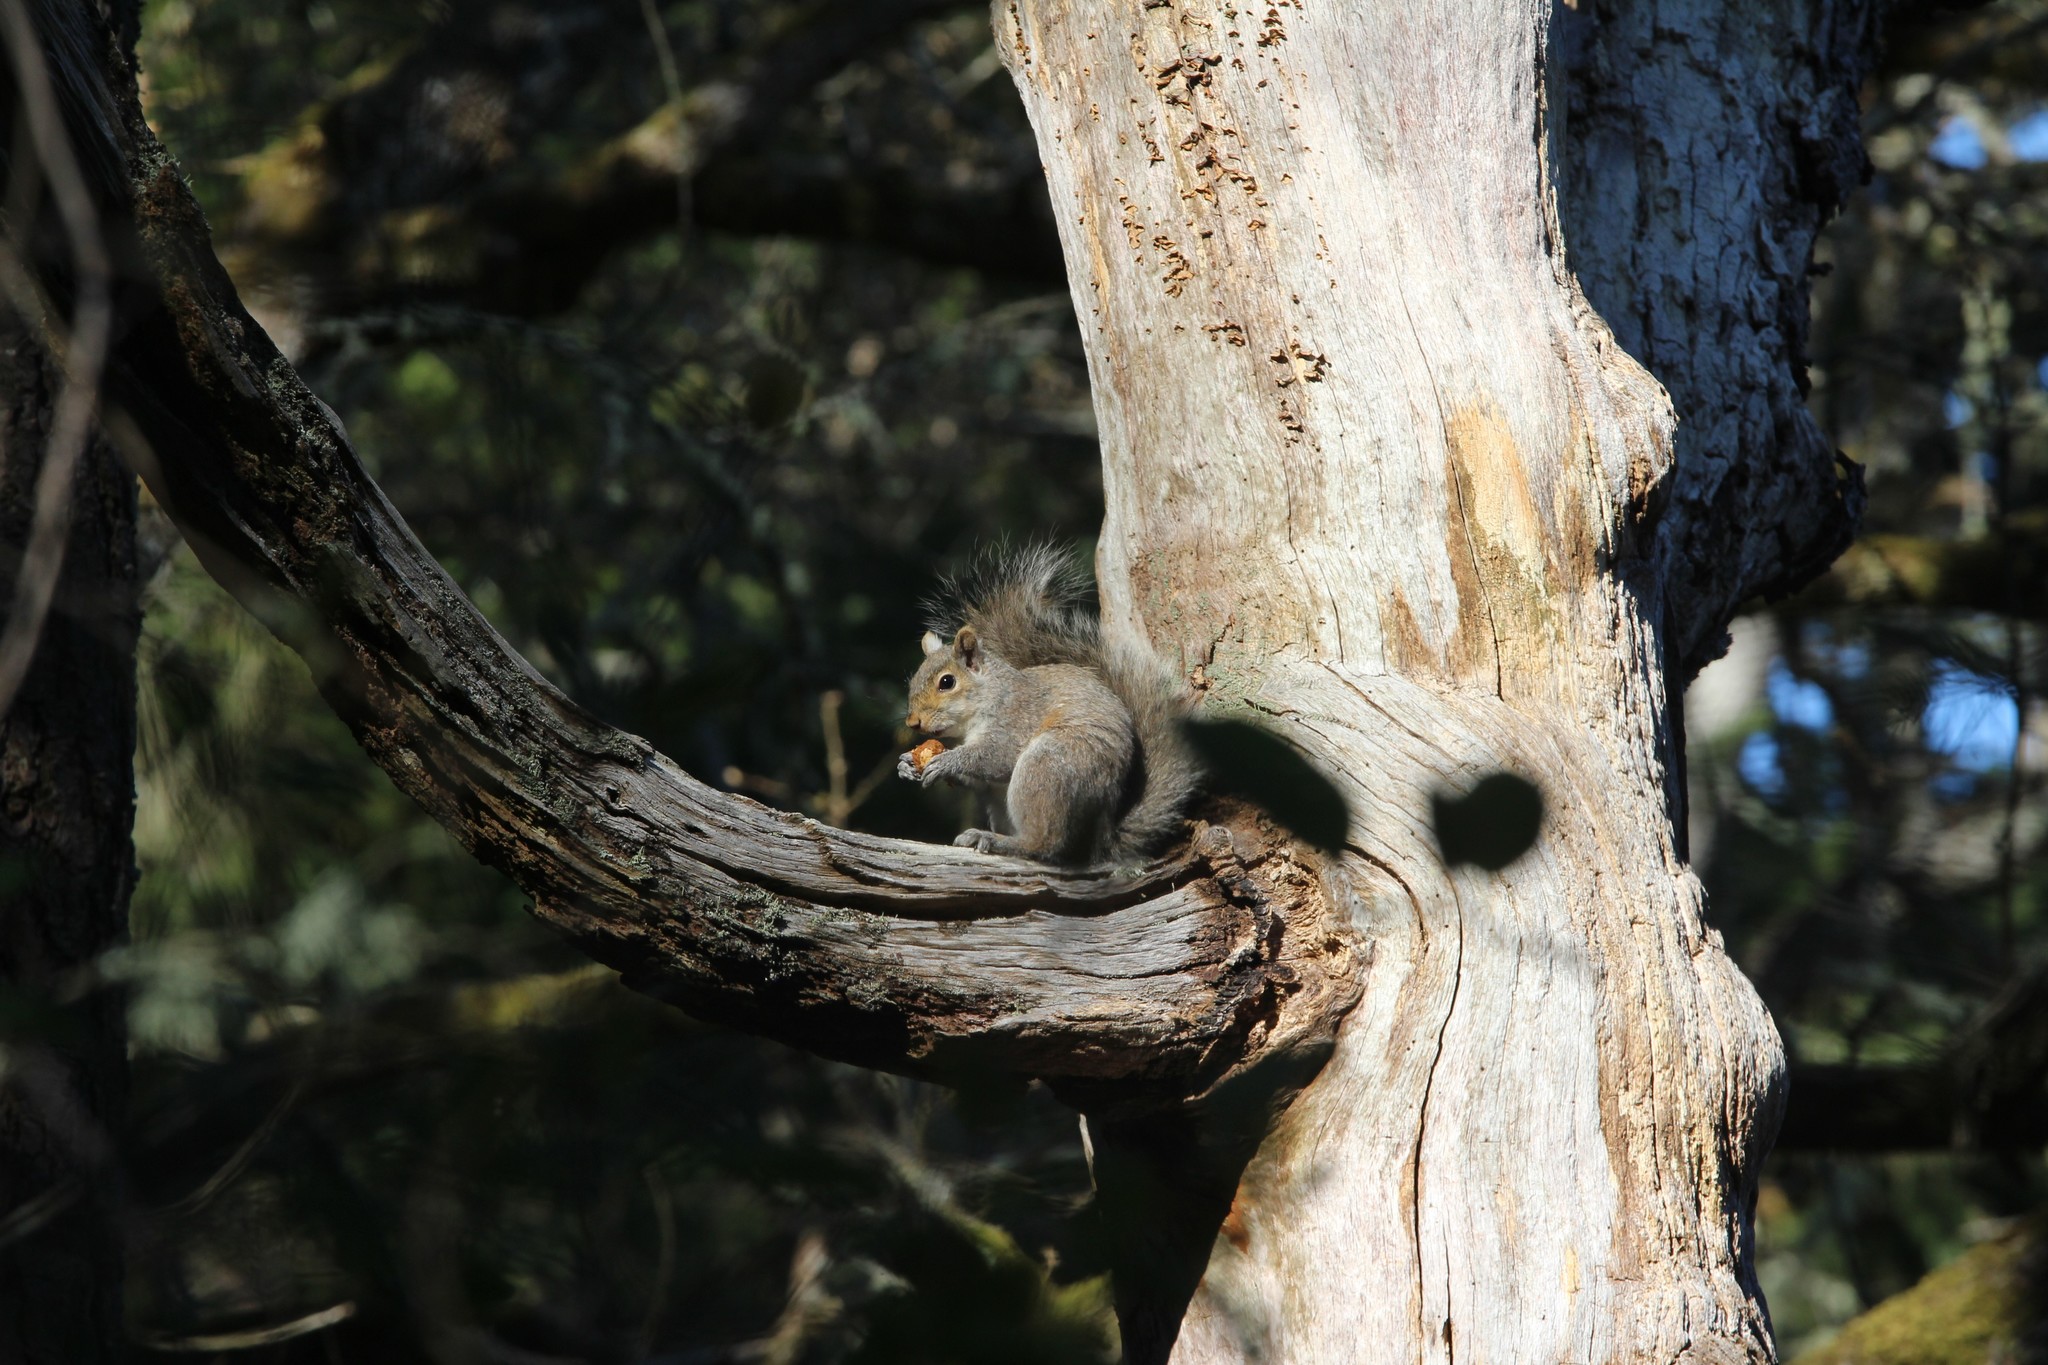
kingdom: Animalia
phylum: Chordata
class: Mammalia
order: Rodentia
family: Sciuridae
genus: Sciurus
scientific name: Sciurus carolinensis
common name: Eastern gray squirrel
